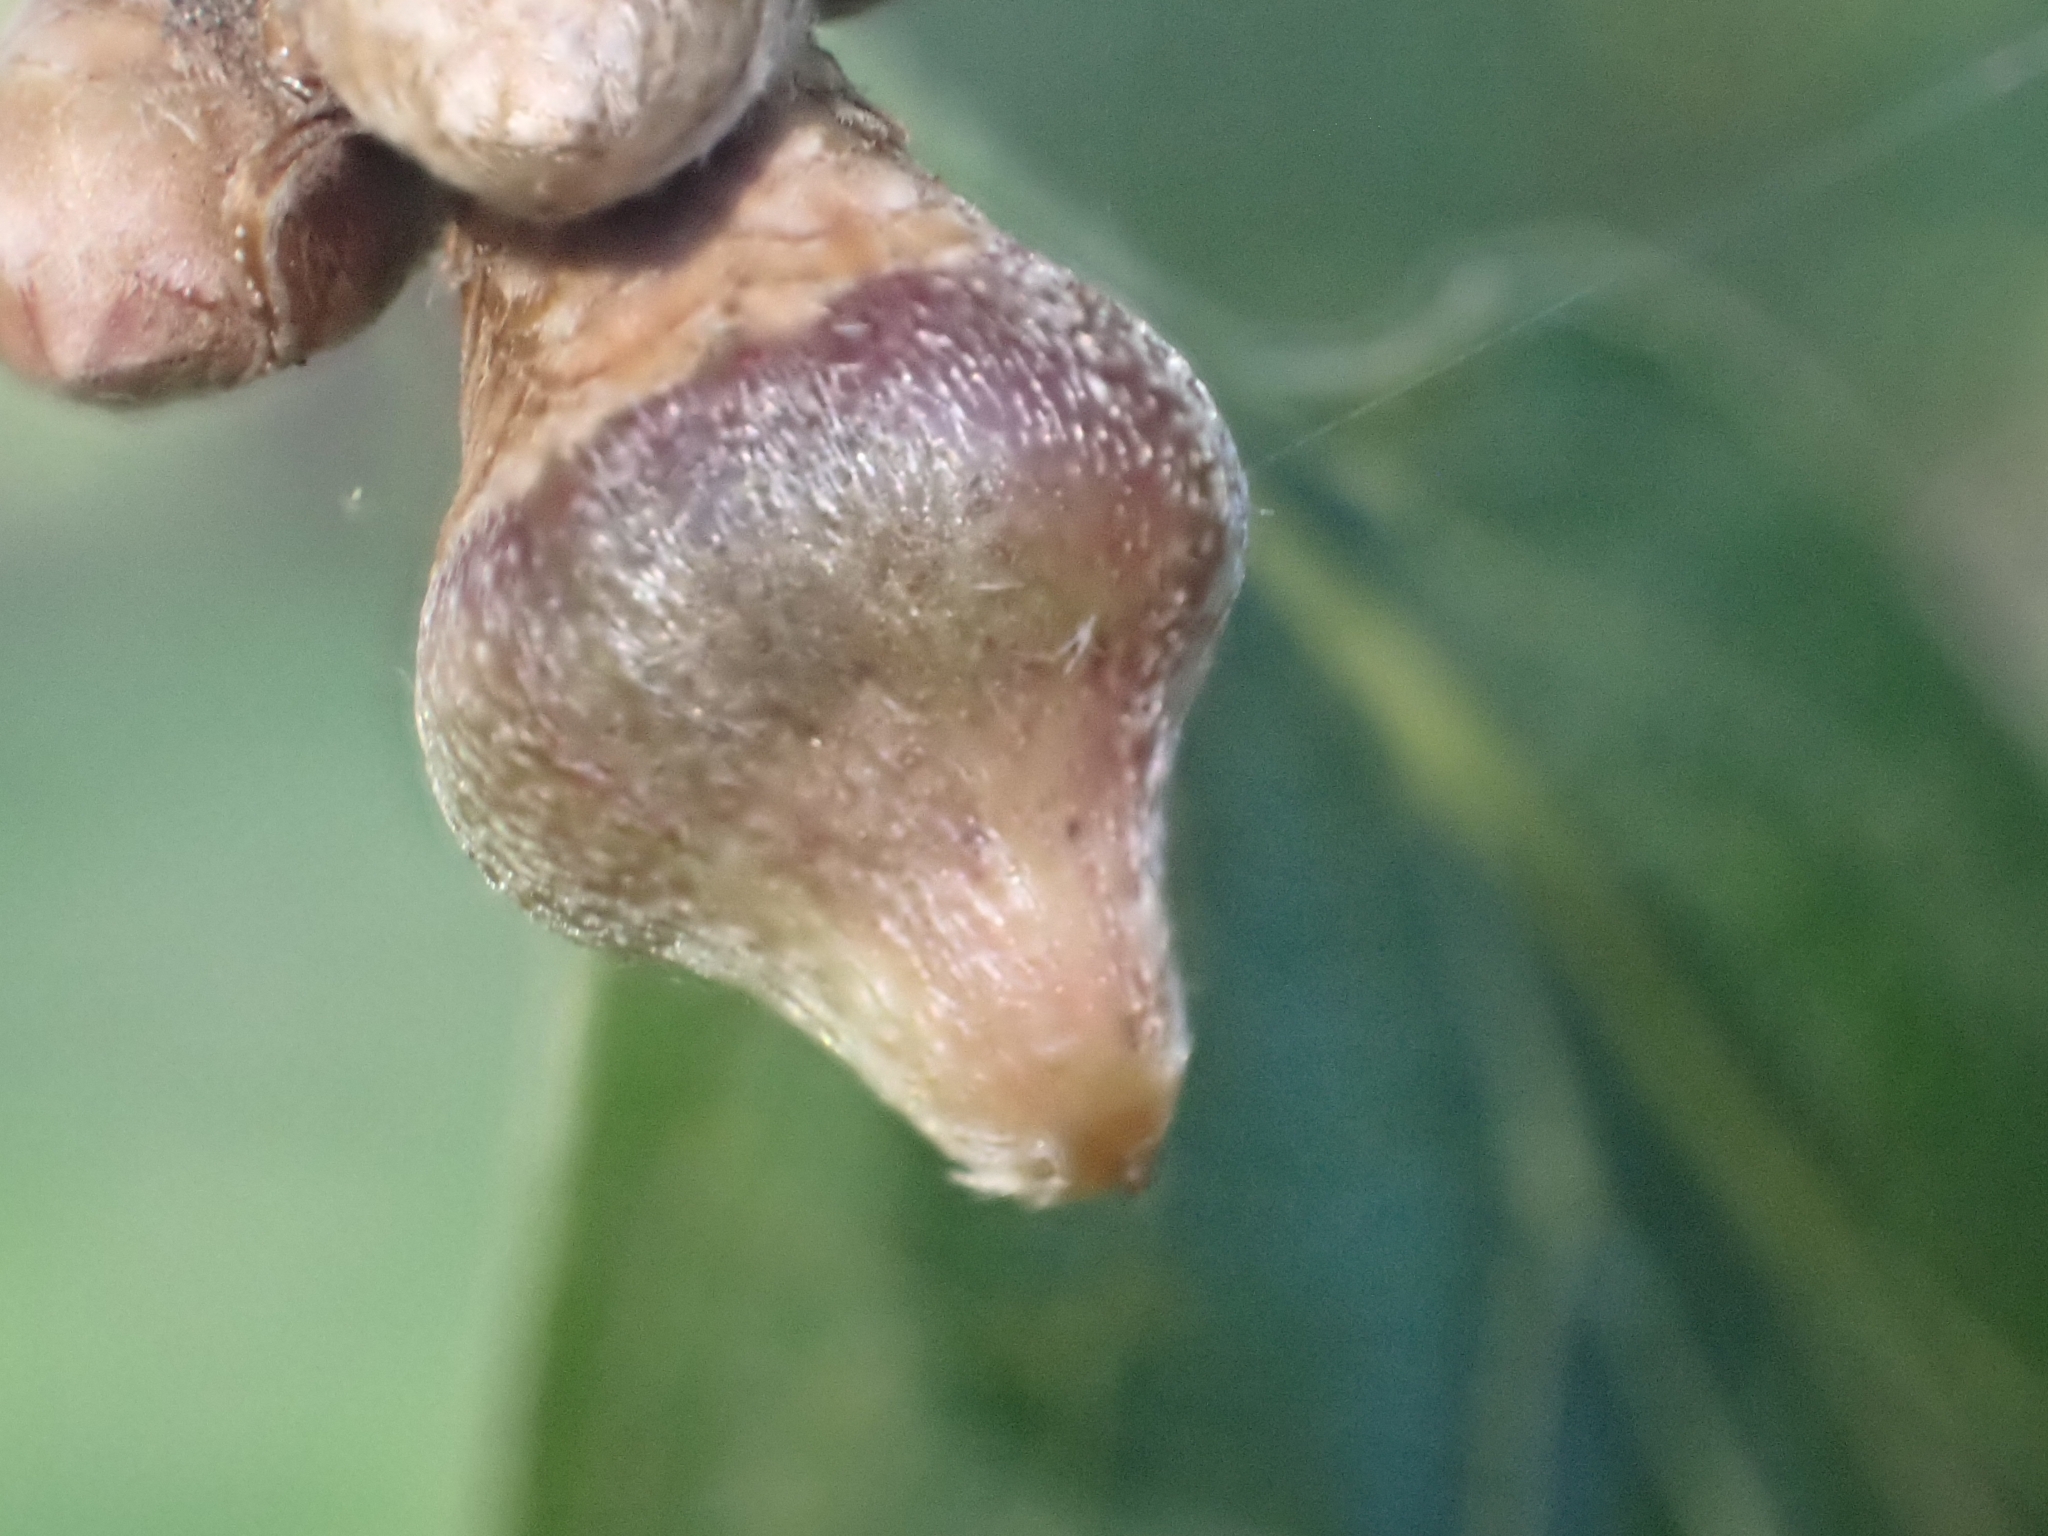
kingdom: Animalia
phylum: Arthropoda
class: Insecta
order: Hymenoptera
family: Cynipidae
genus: Andricus
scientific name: Andricus glandulae
